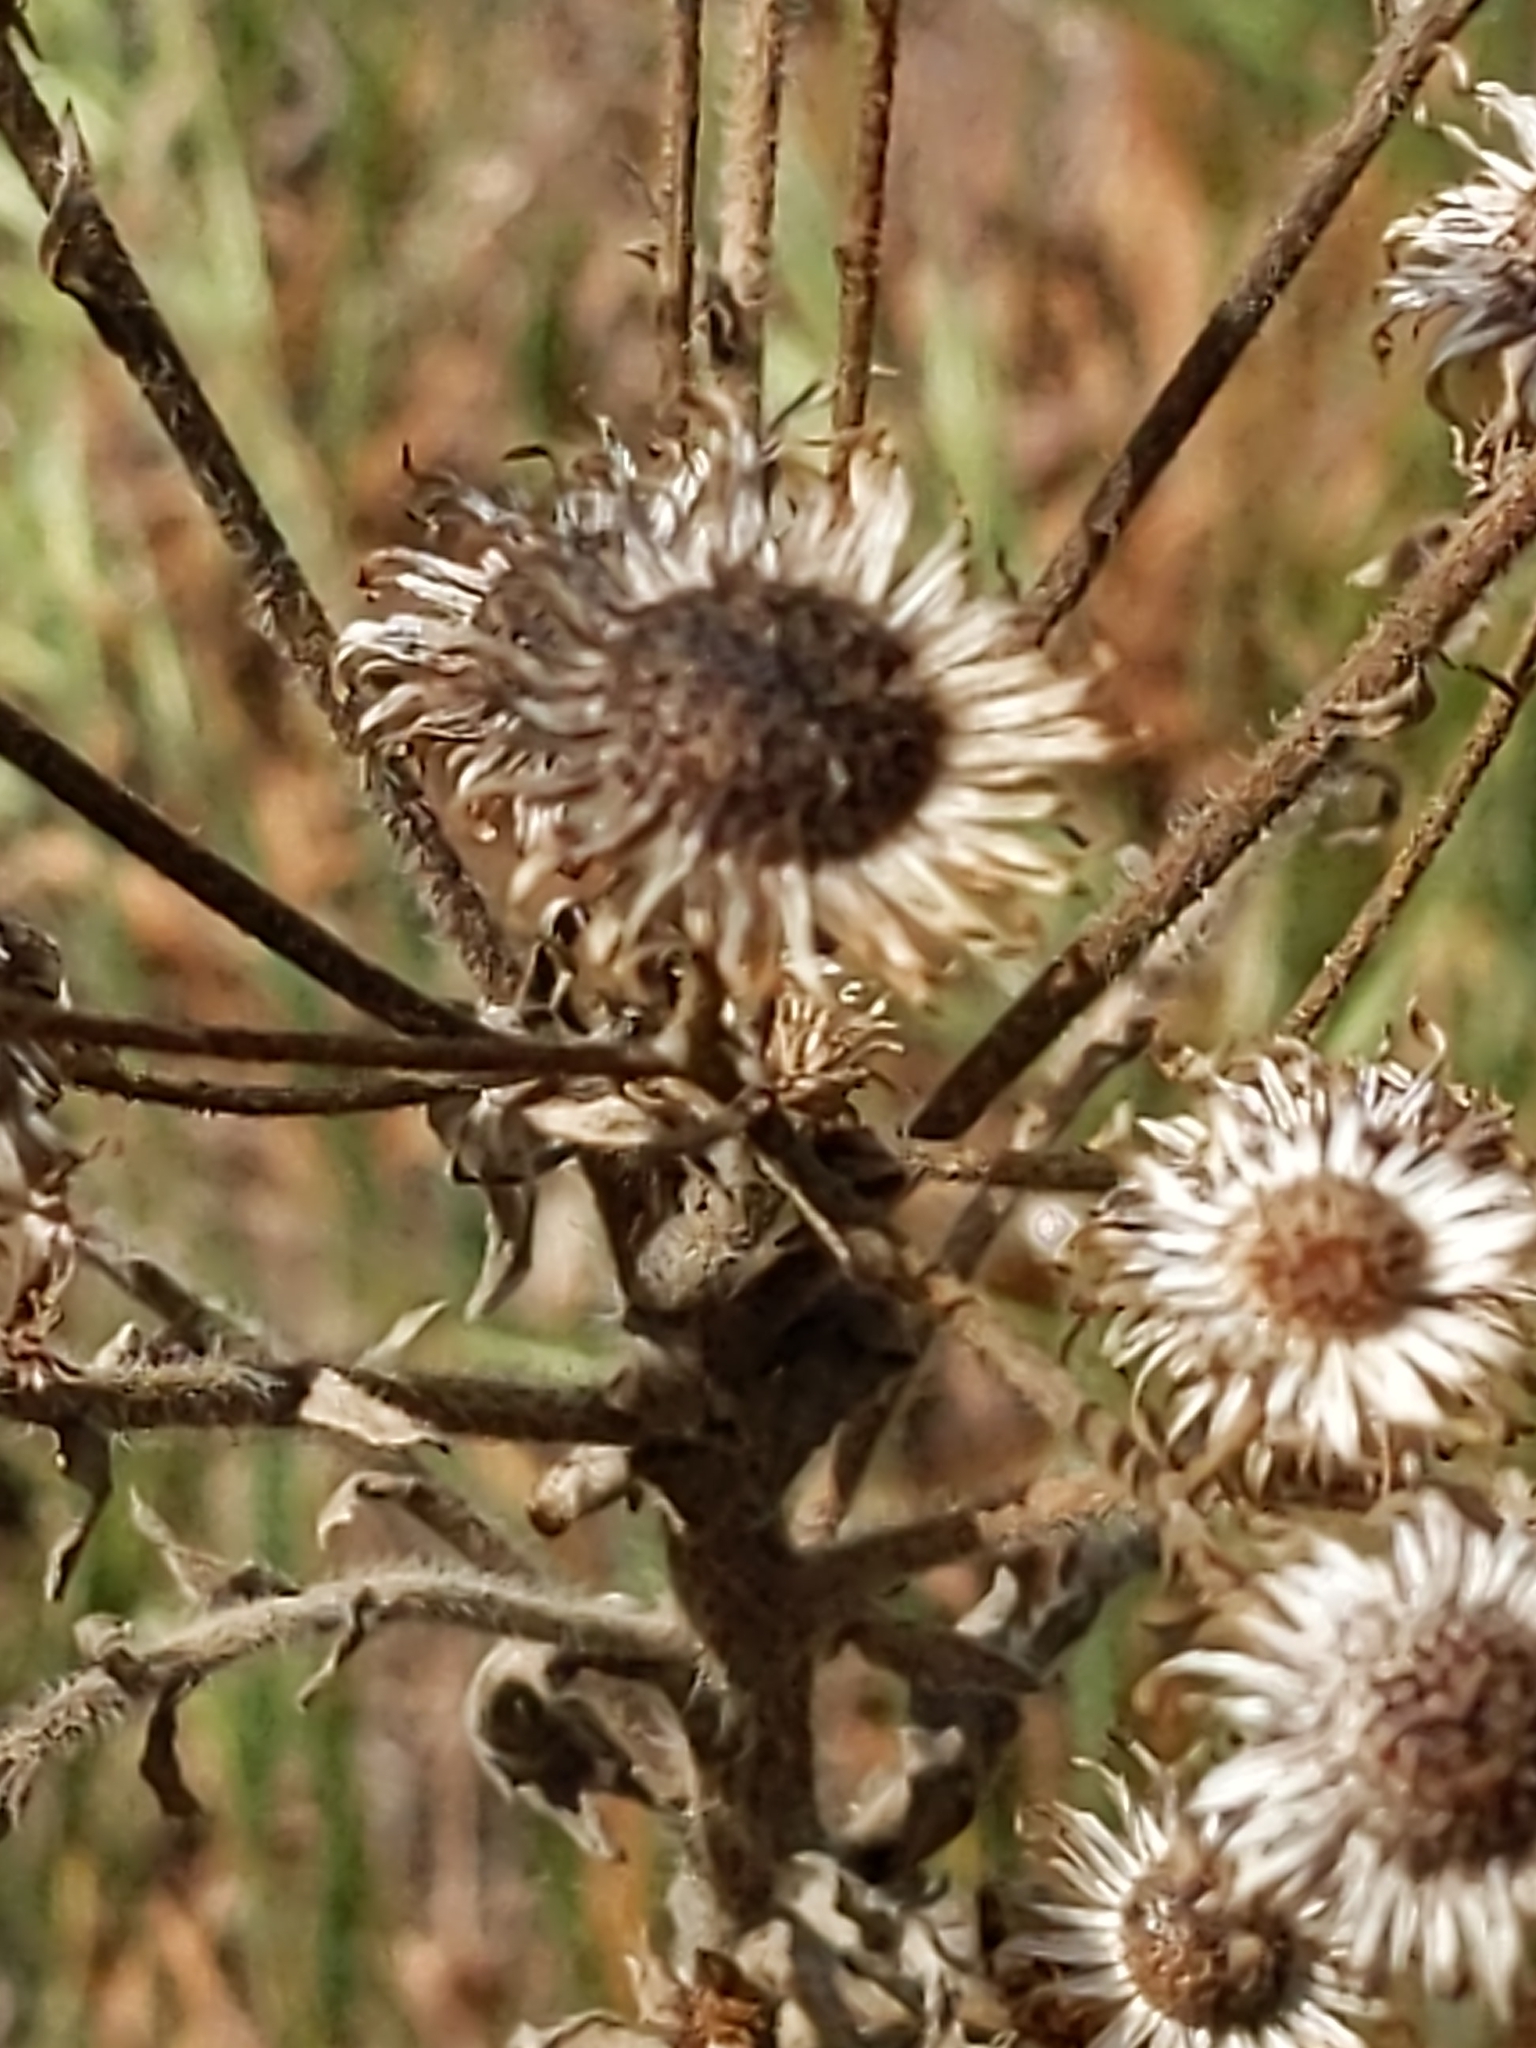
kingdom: Plantae
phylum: Tracheophyta
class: Magnoliopsida
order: Asterales
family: Asteraceae
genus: Heterotheca
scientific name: Heterotheca grandiflora
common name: Telegraphweed
